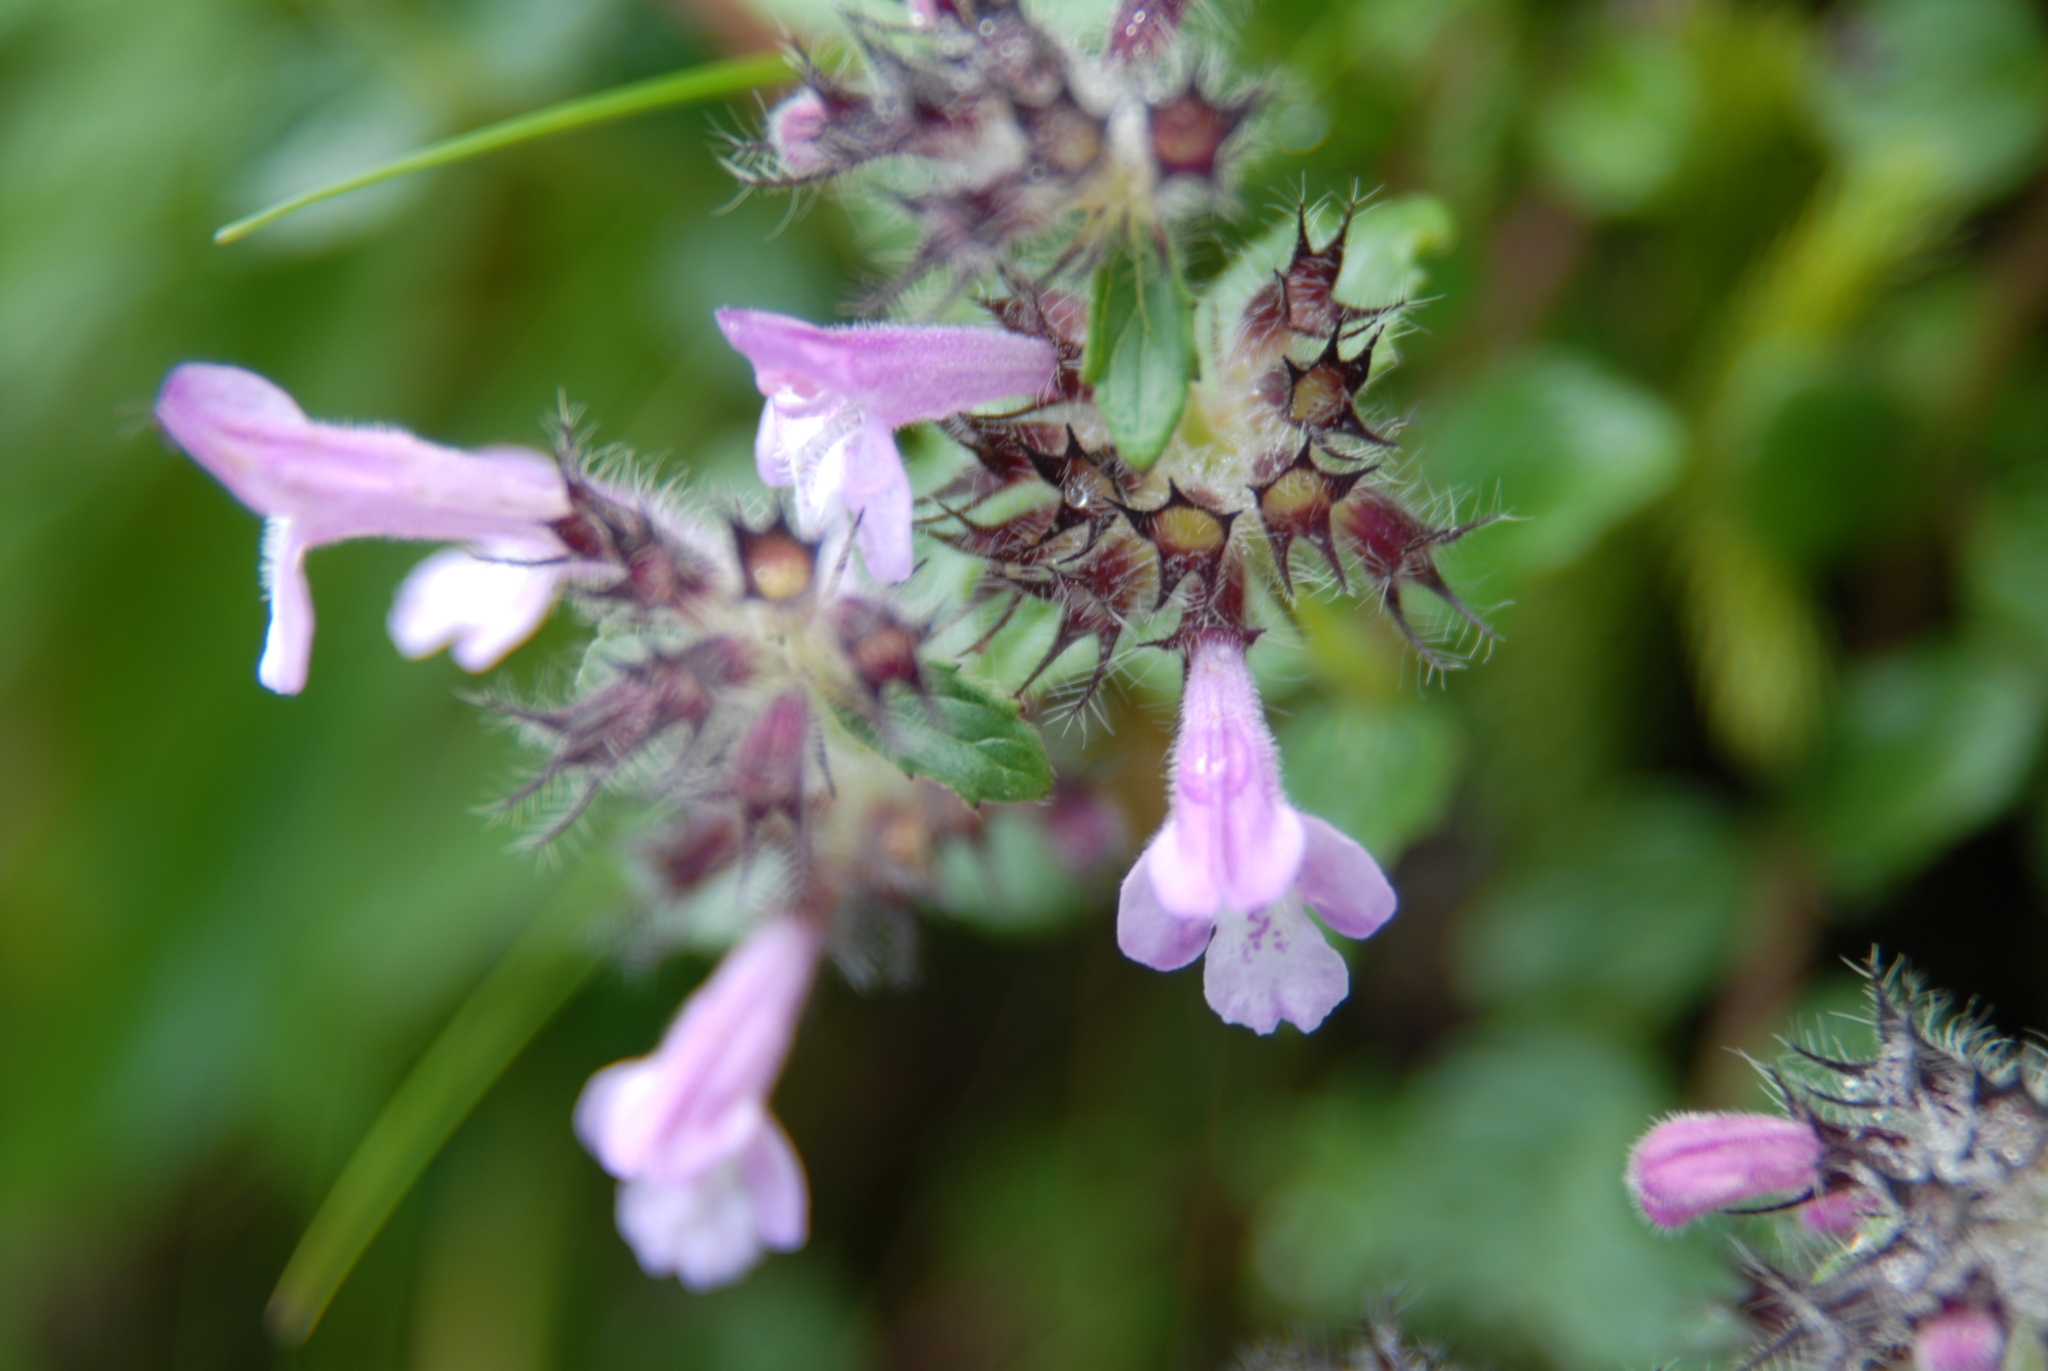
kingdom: Plantae
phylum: Tracheophyta
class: Magnoliopsida
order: Lamiales
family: Lamiaceae
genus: Clinopodium
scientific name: Clinopodium laxiflorum
